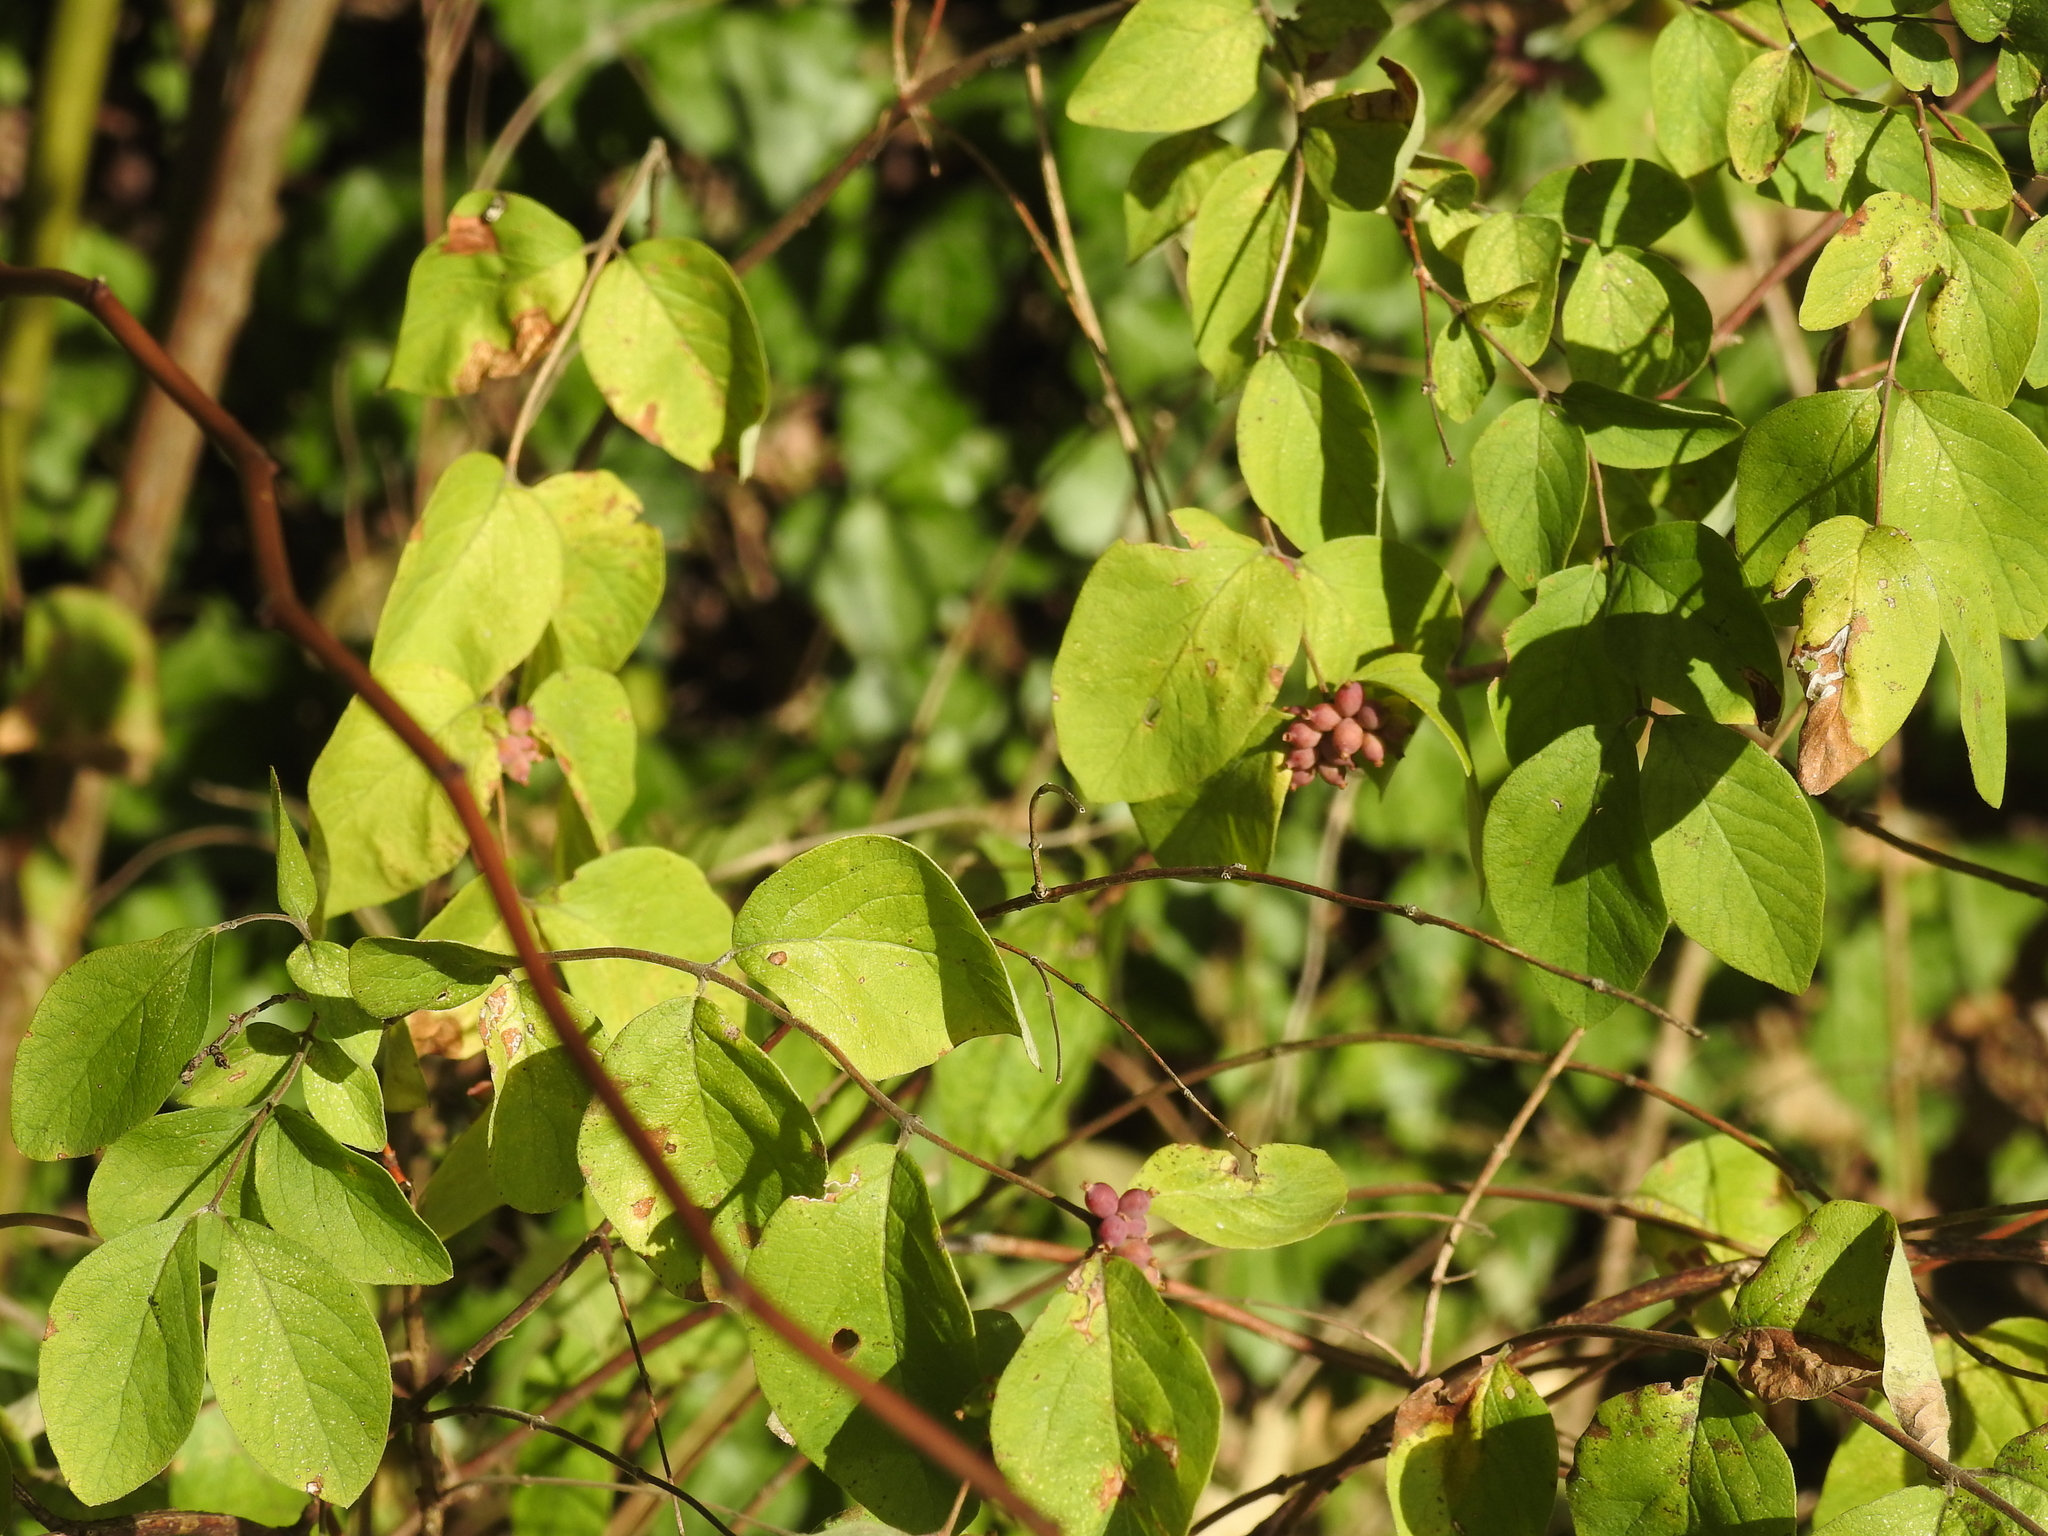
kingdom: Plantae
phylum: Tracheophyta
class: Magnoliopsida
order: Dipsacales
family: Caprifoliaceae
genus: Symphoricarpos
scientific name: Symphoricarpos orbiculatus
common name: Coralberry
